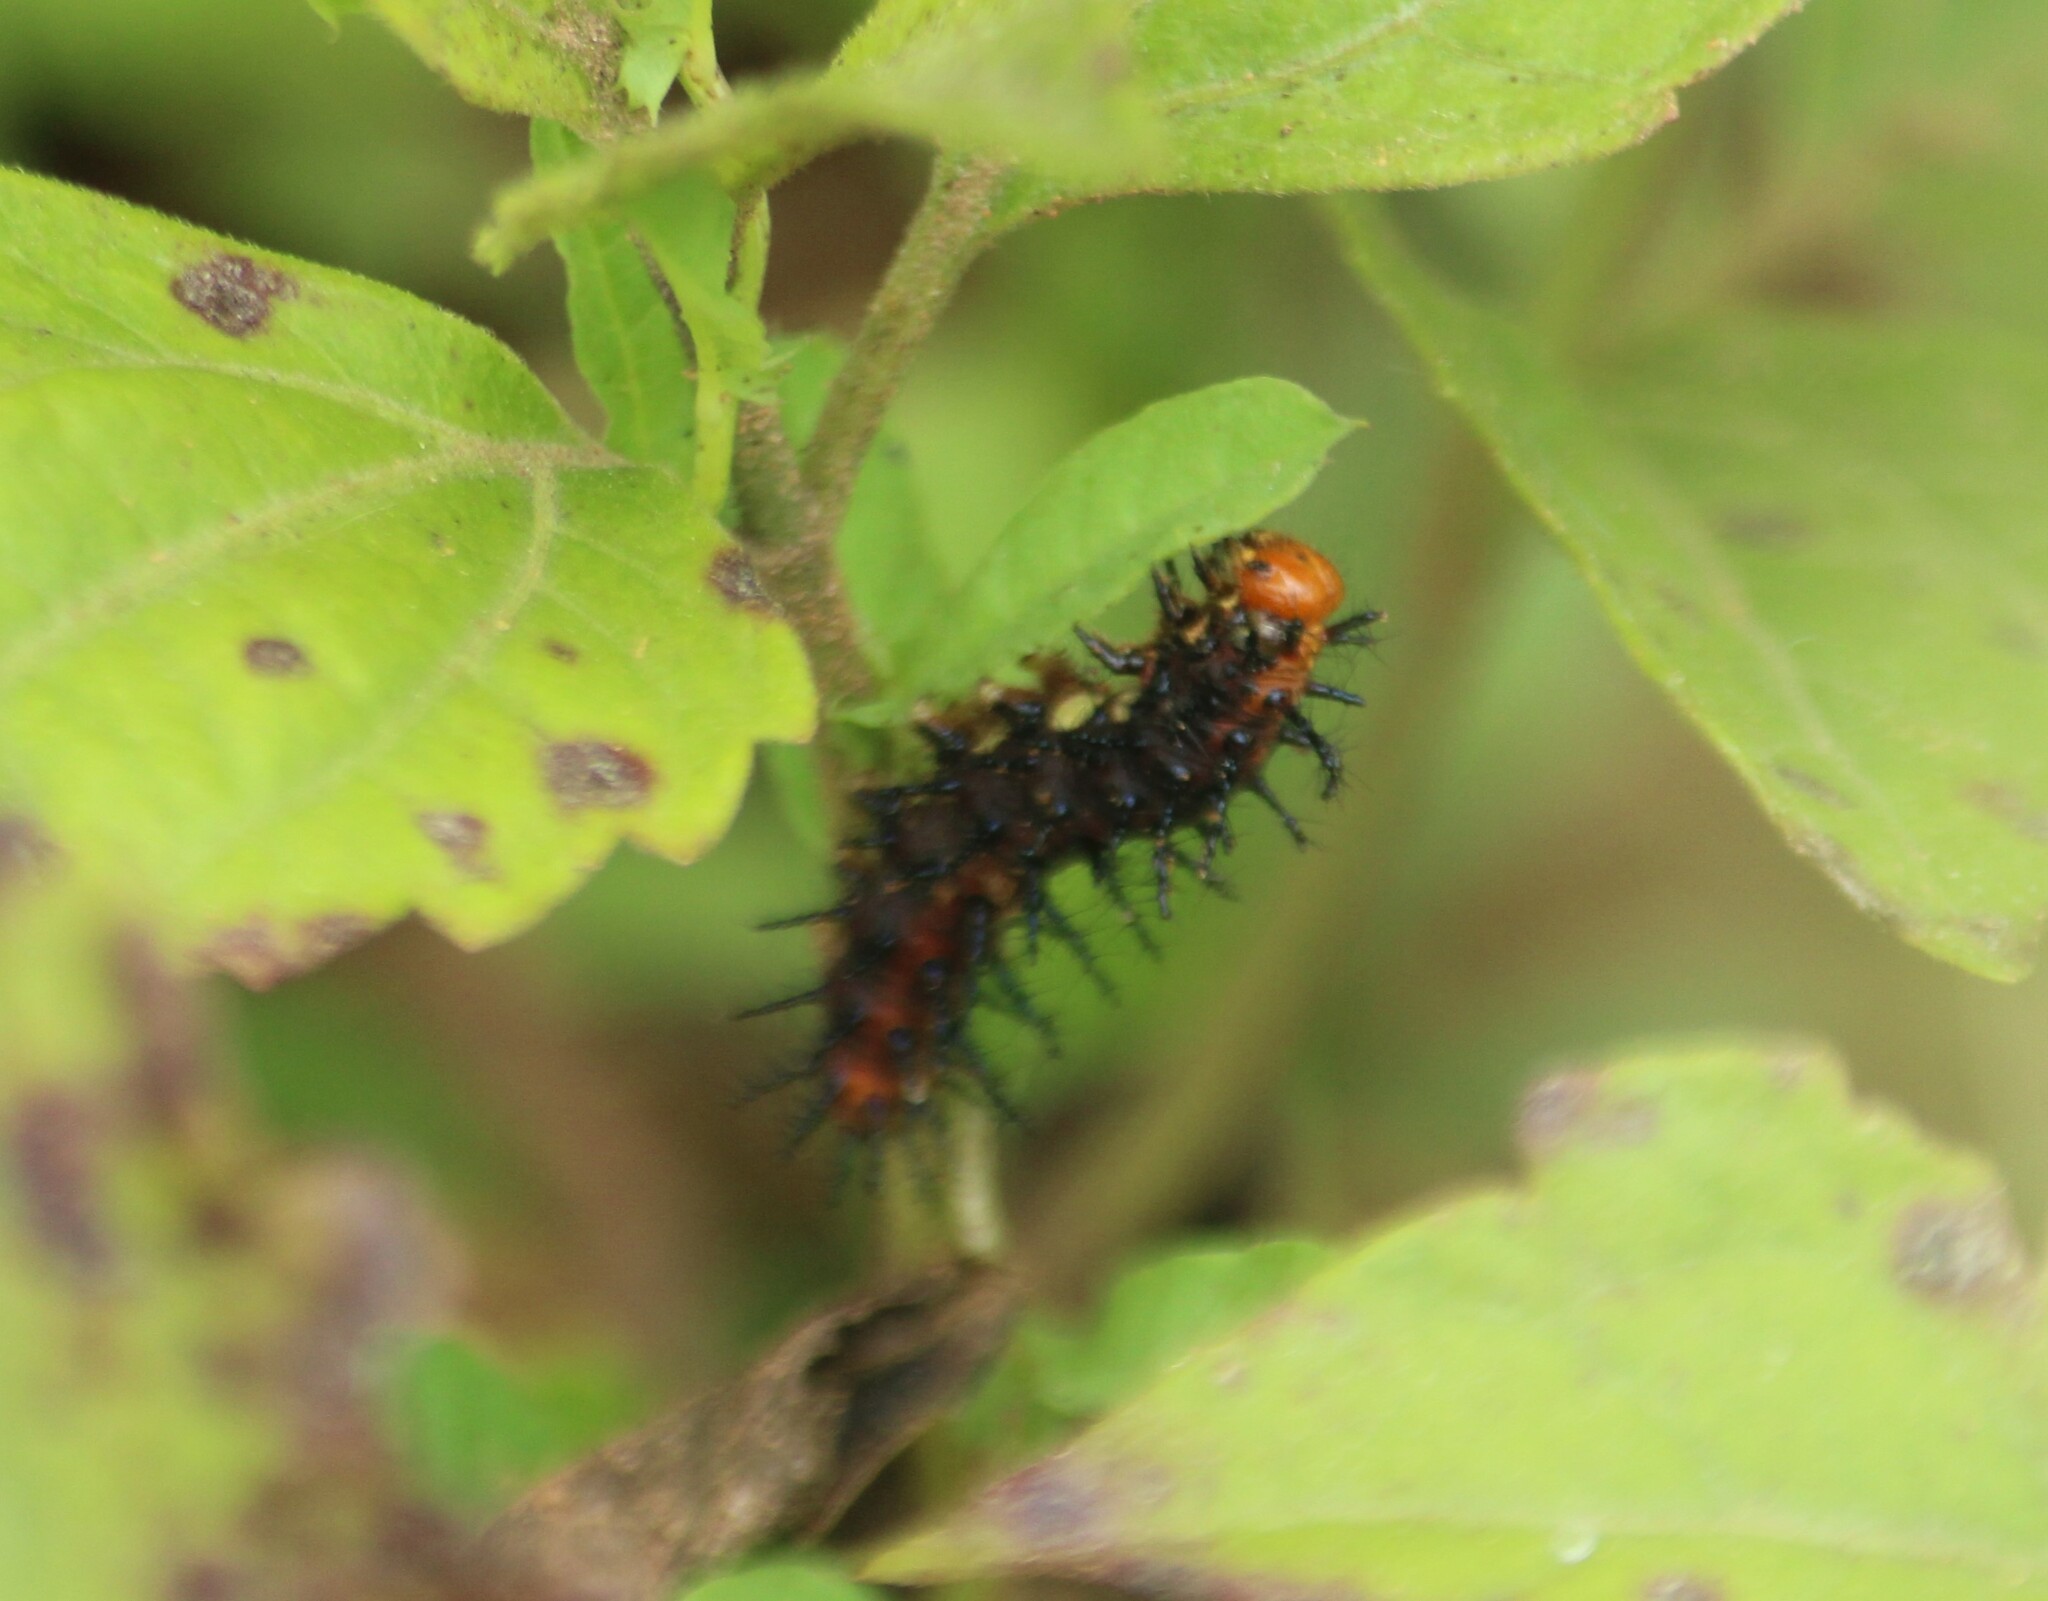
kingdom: Animalia
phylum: Arthropoda
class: Insecta
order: Lepidoptera
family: Nymphalidae
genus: Acraea
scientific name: Acraea terpsicore
